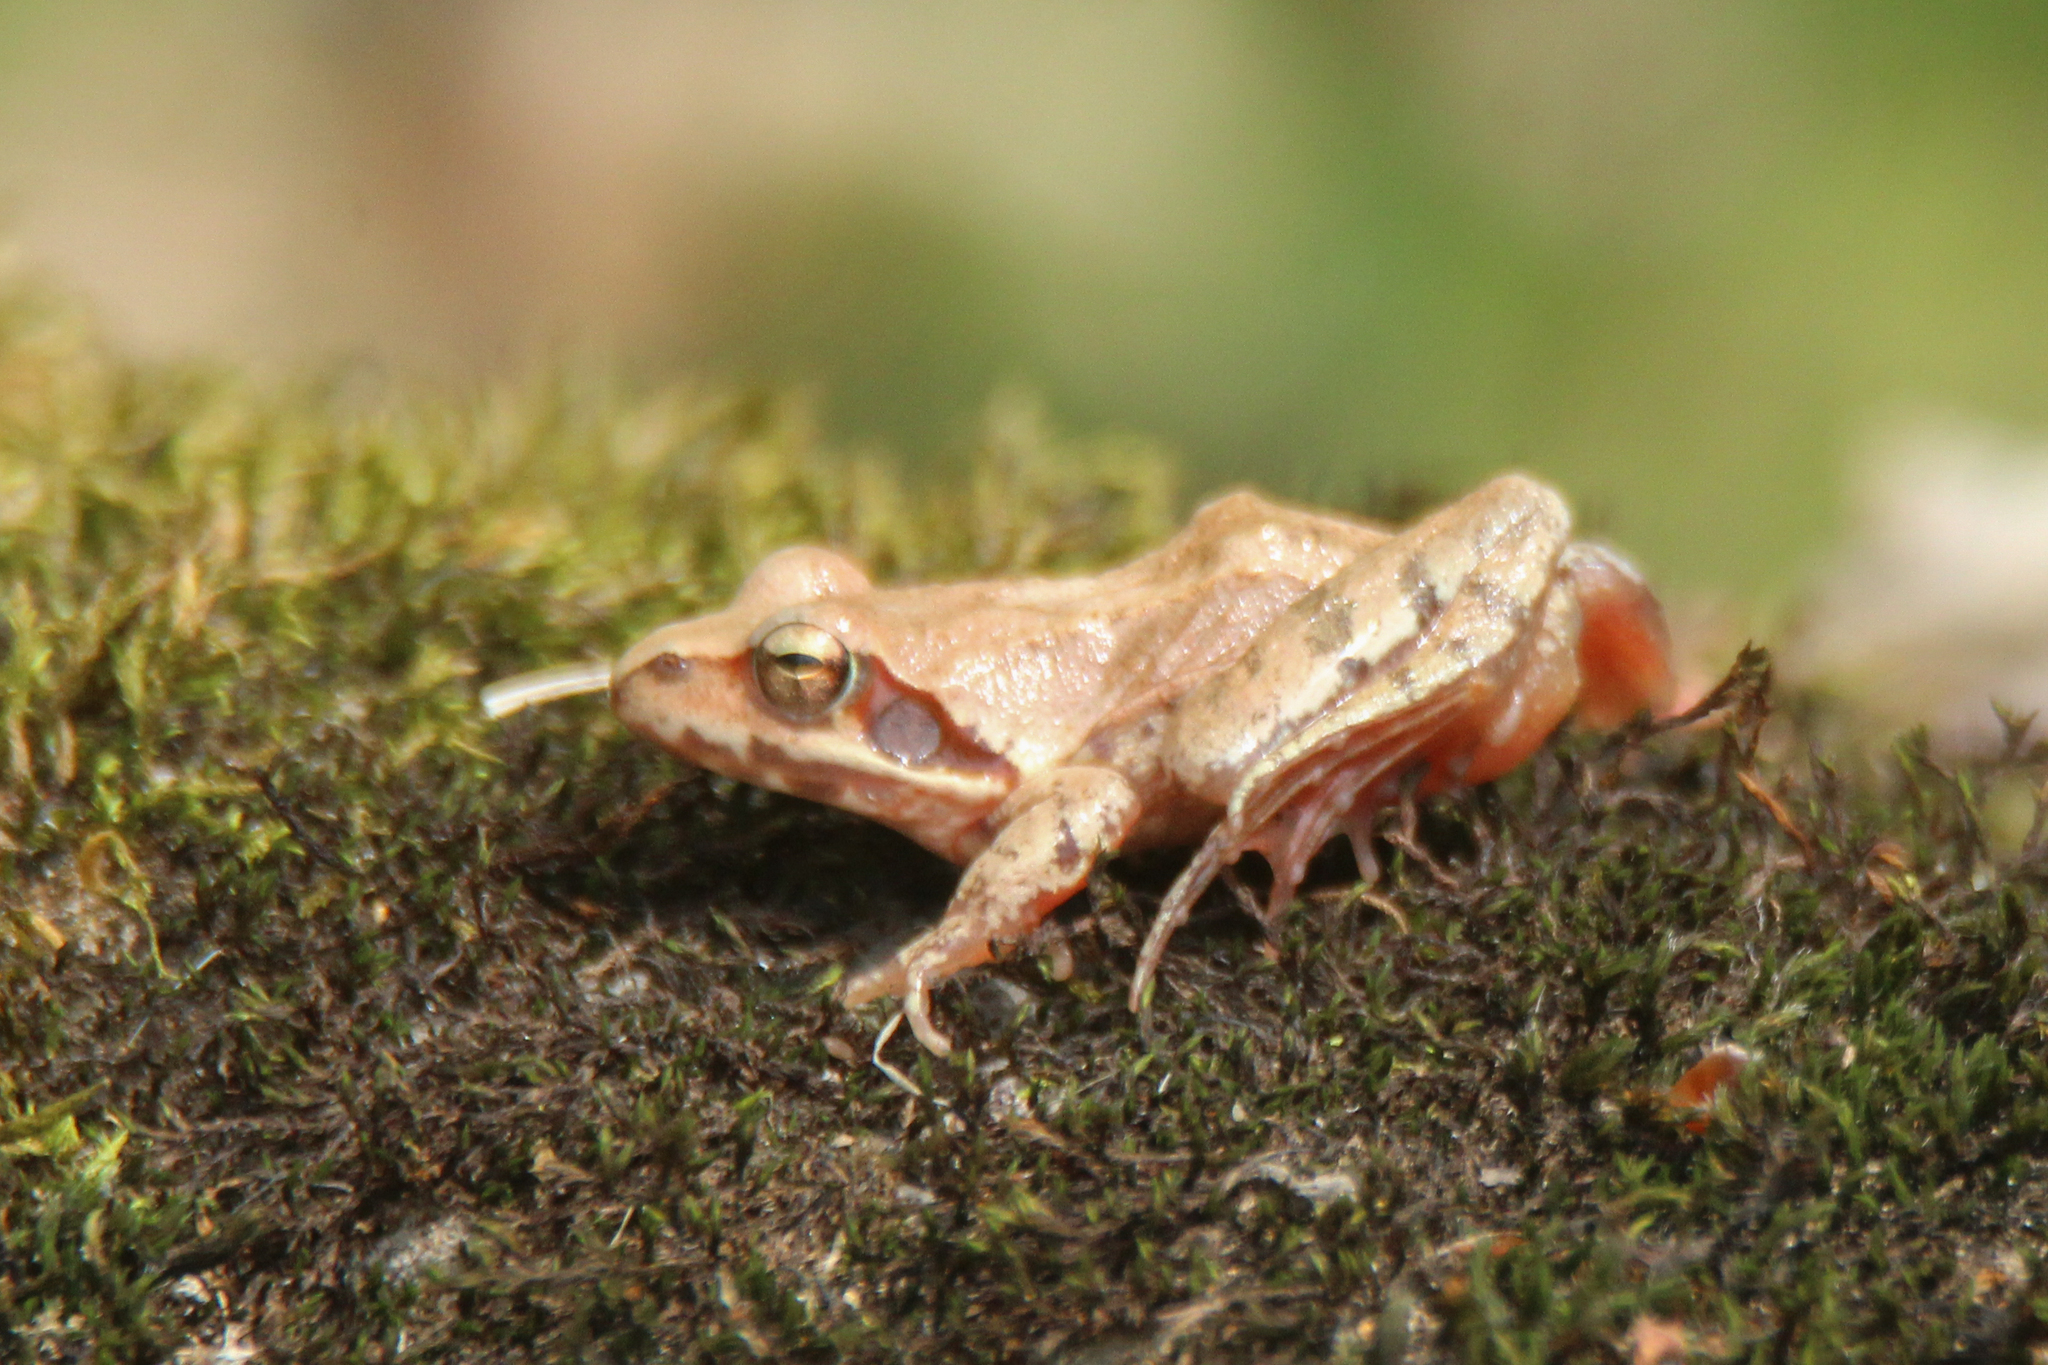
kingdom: Animalia
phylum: Chordata
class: Amphibia
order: Anura
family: Ranidae
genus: Rana
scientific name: Rana dybowskii
